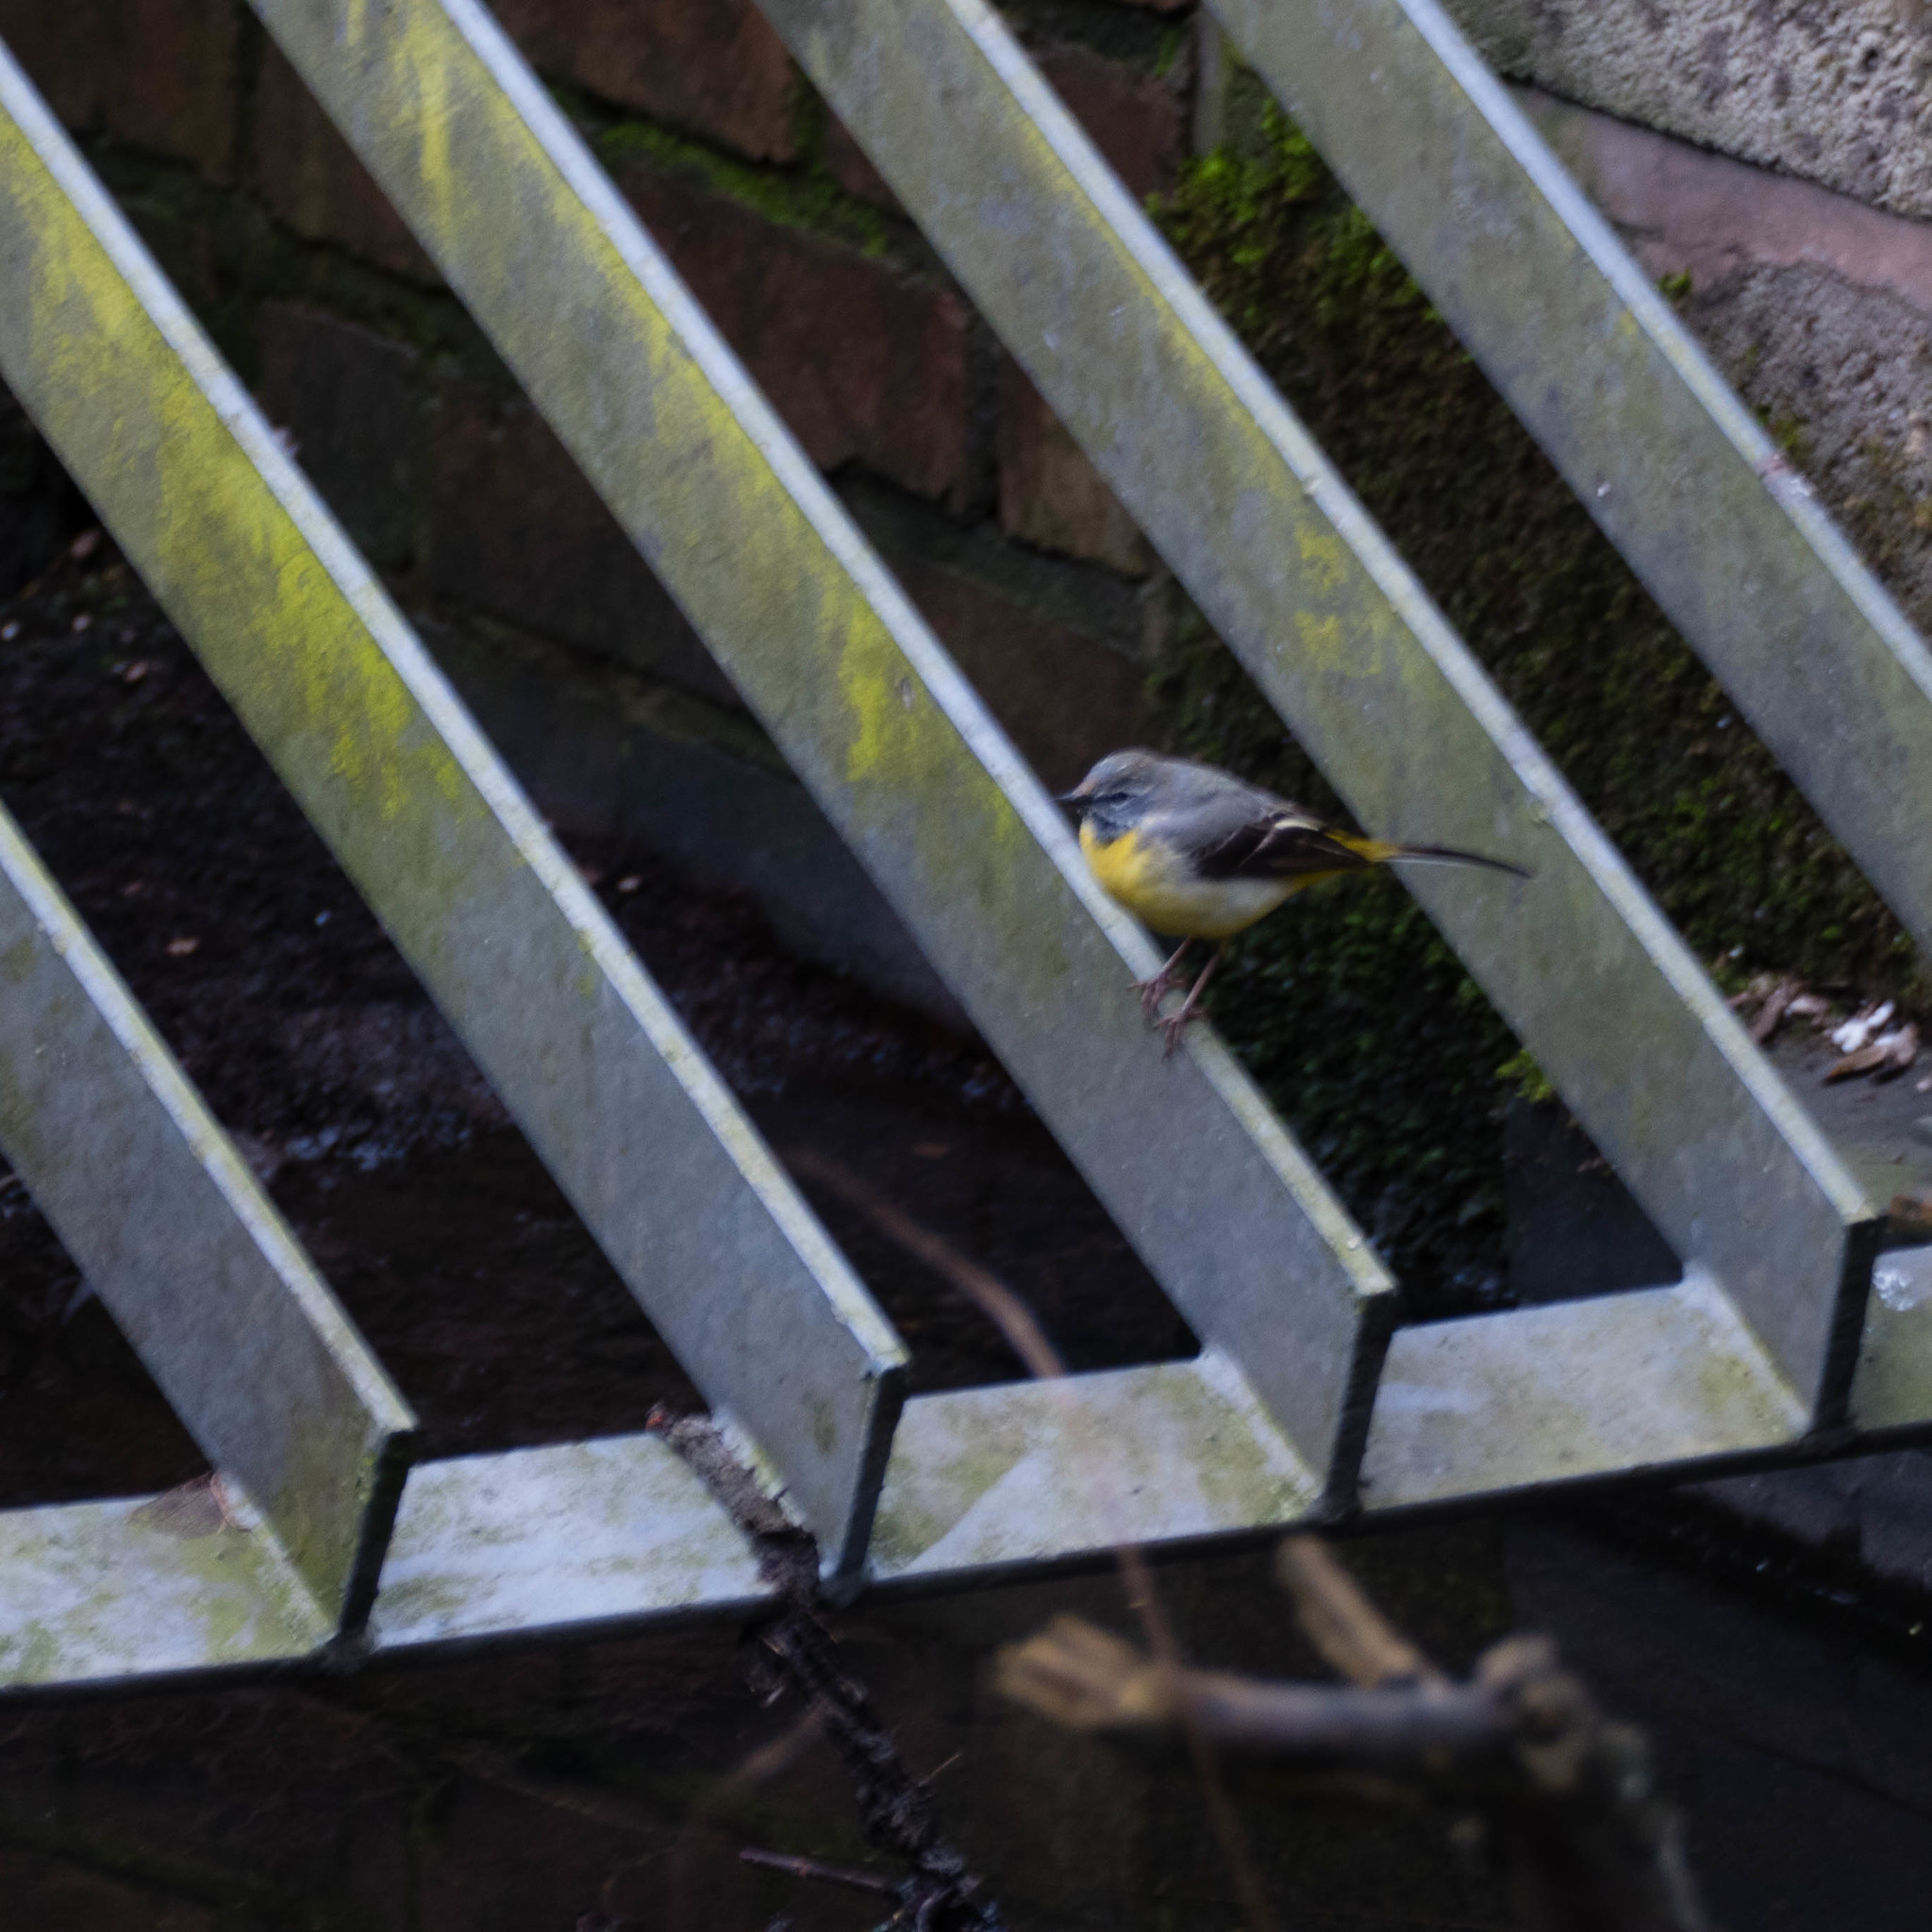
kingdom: Animalia
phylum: Chordata
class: Aves
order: Passeriformes
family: Motacillidae
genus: Motacilla
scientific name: Motacilla cinerea
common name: Grey wagtail
